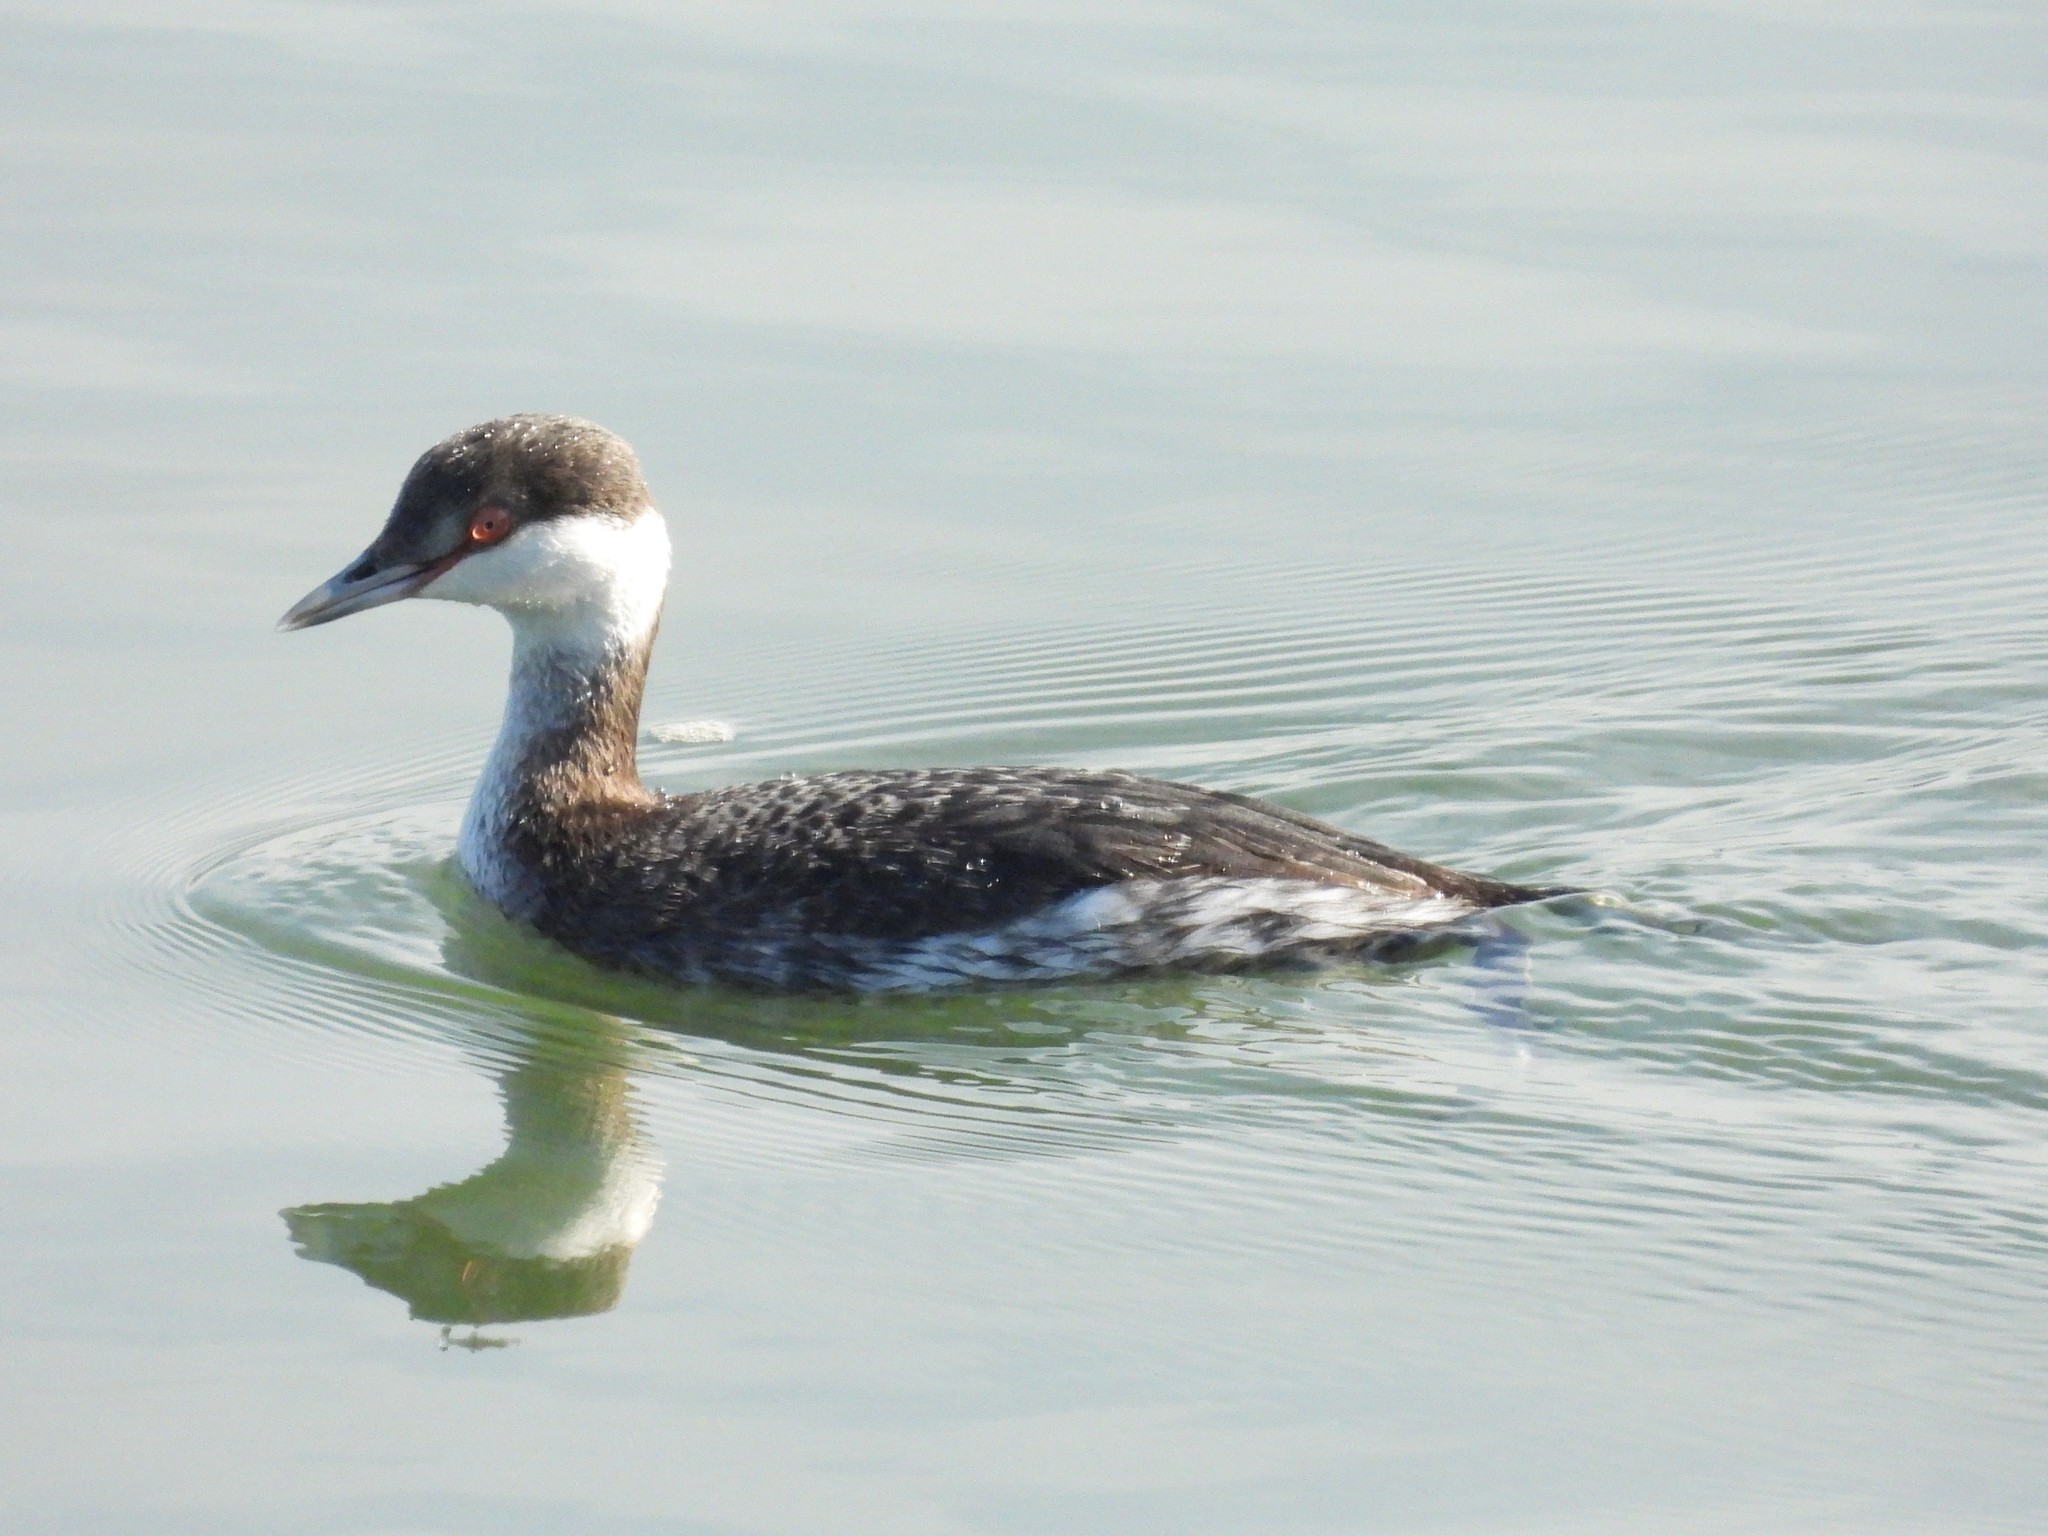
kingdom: Animalia
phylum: Chordata
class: Aves
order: Podicipediformes
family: Podicipedidae
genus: Podiceps
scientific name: Podiceps auritus
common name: Horned grebe
